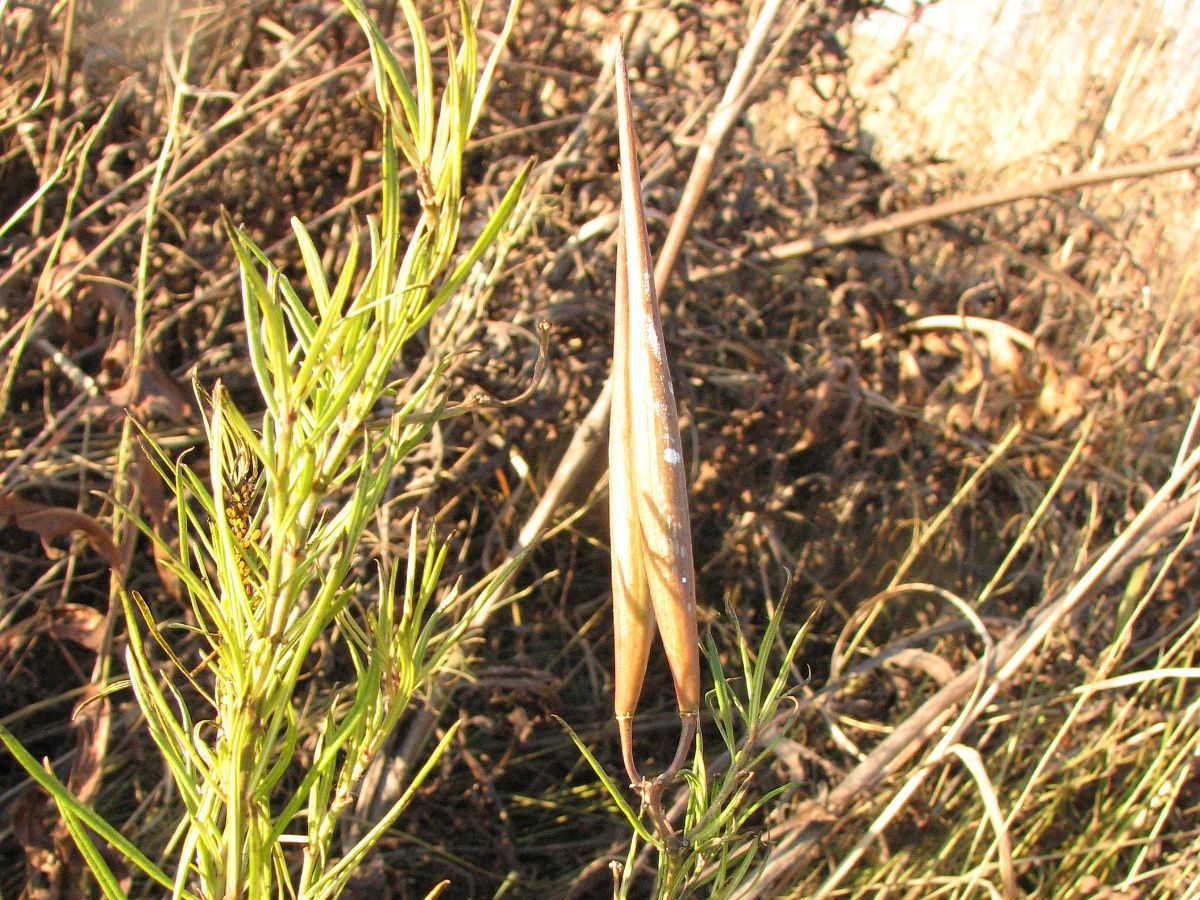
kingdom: Plantae
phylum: Tracheophyta
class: Magnoliopsida
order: Gentianales
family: Apocynaceae
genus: Asclepias
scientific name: Asclepias verticillata
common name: Eastern whorled milkweed
